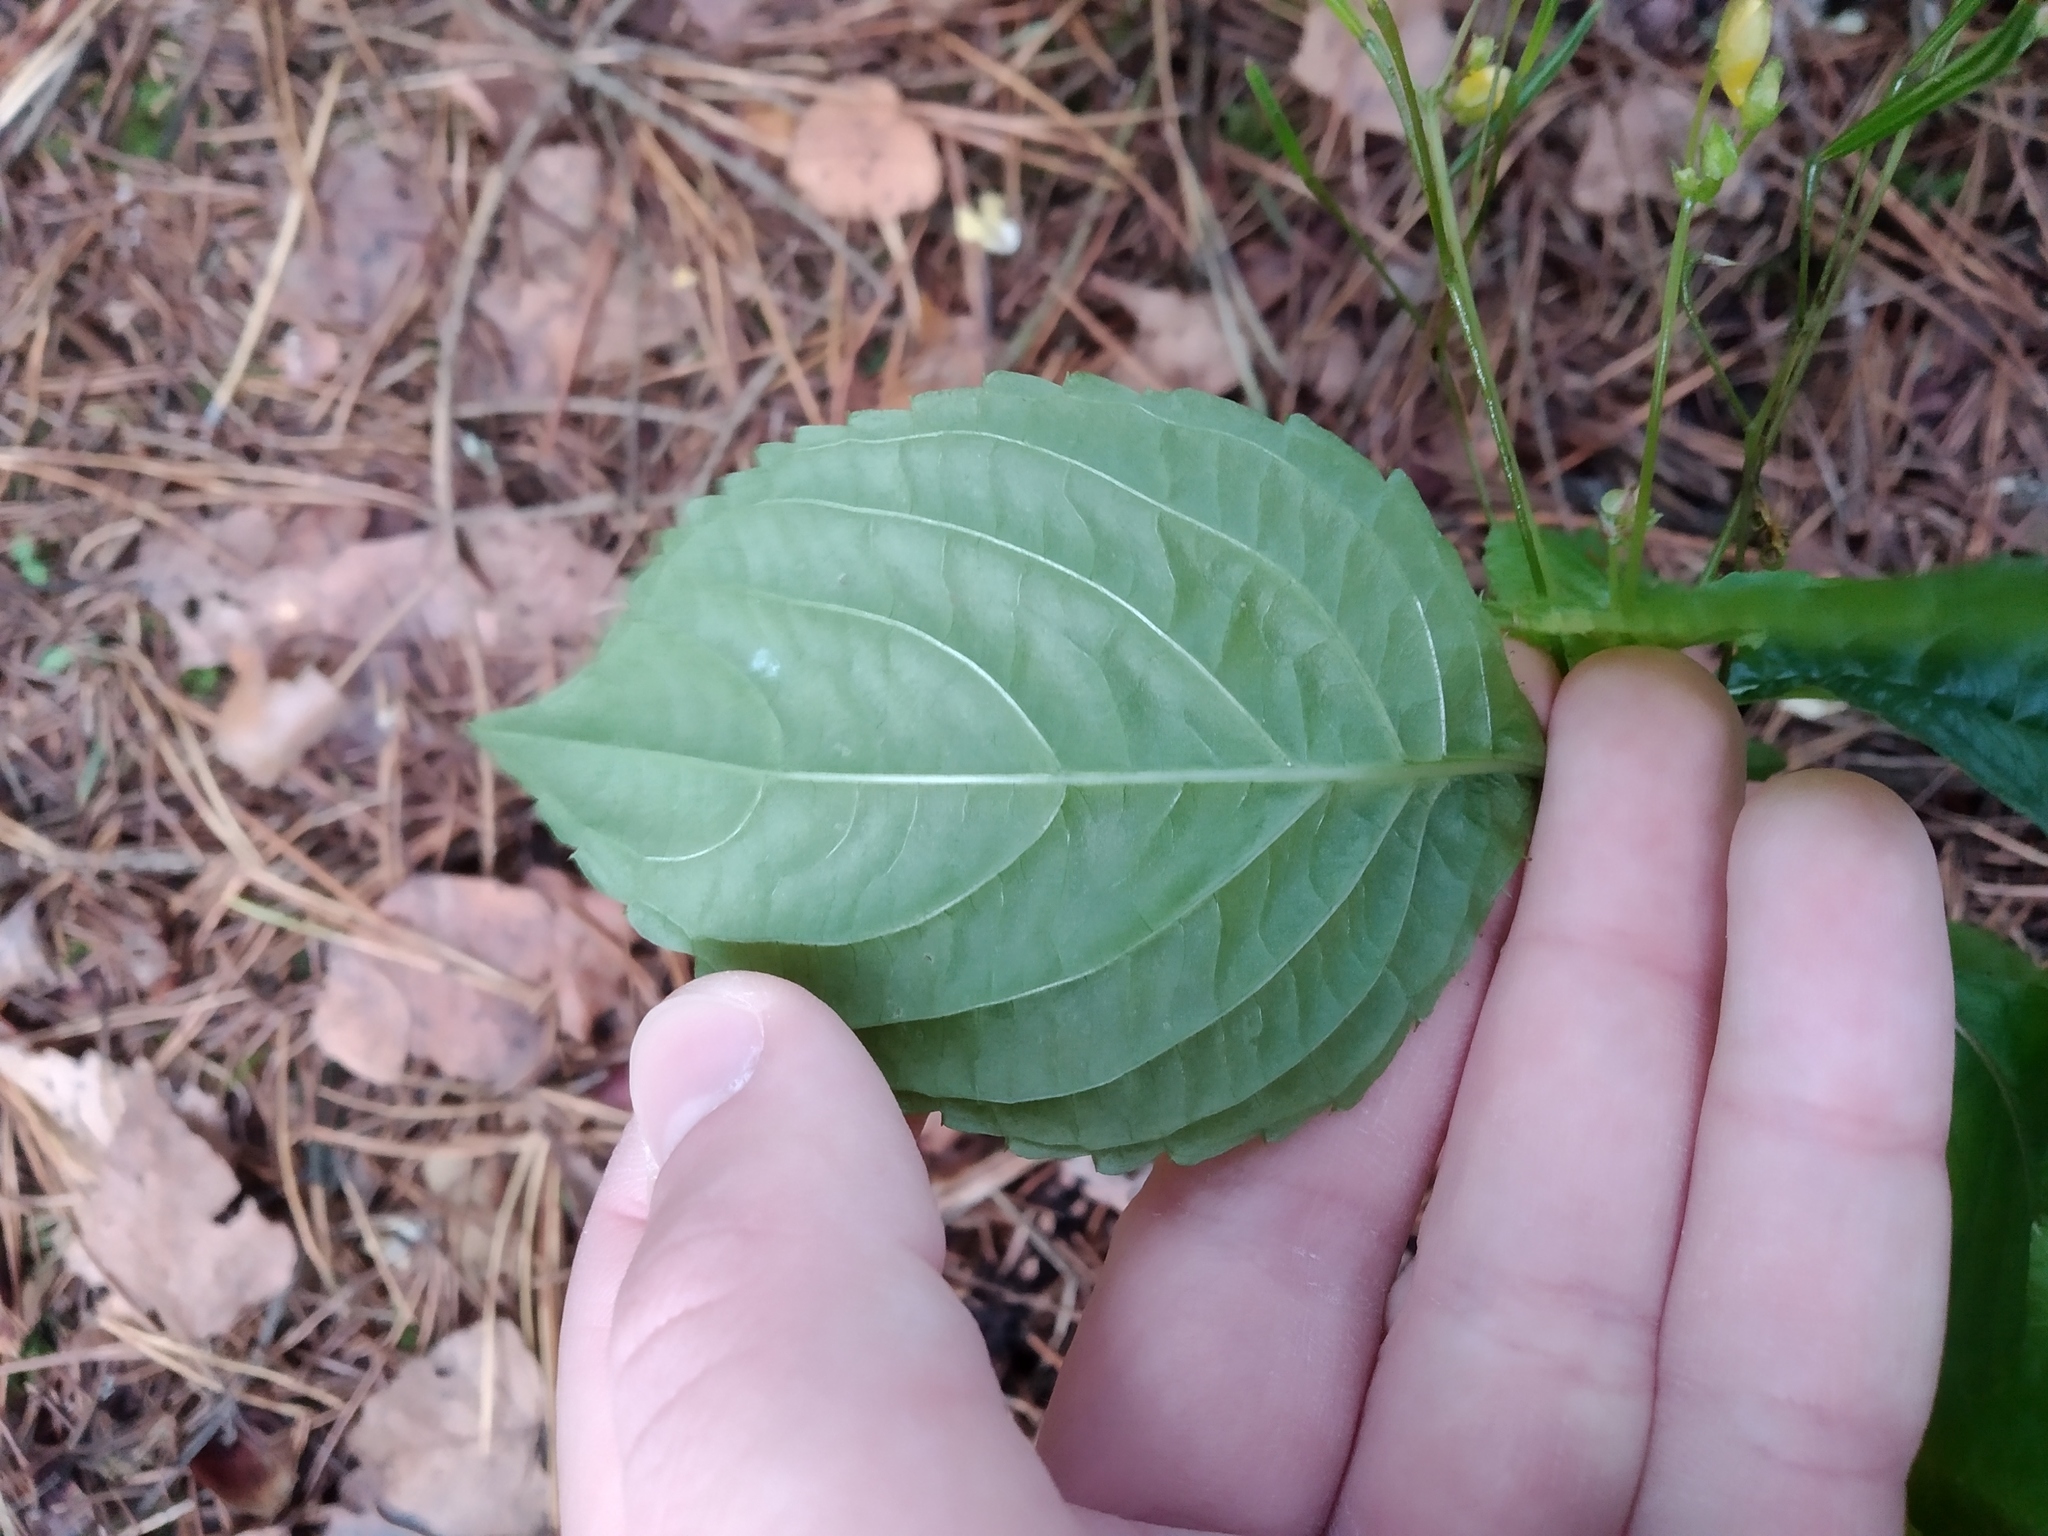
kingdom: Plantae
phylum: Tracheophyta
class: Magnoliopsida
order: Ericales
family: Balsaminaceae
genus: Impatiens
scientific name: Impatiens parviflora
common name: Small balsam
